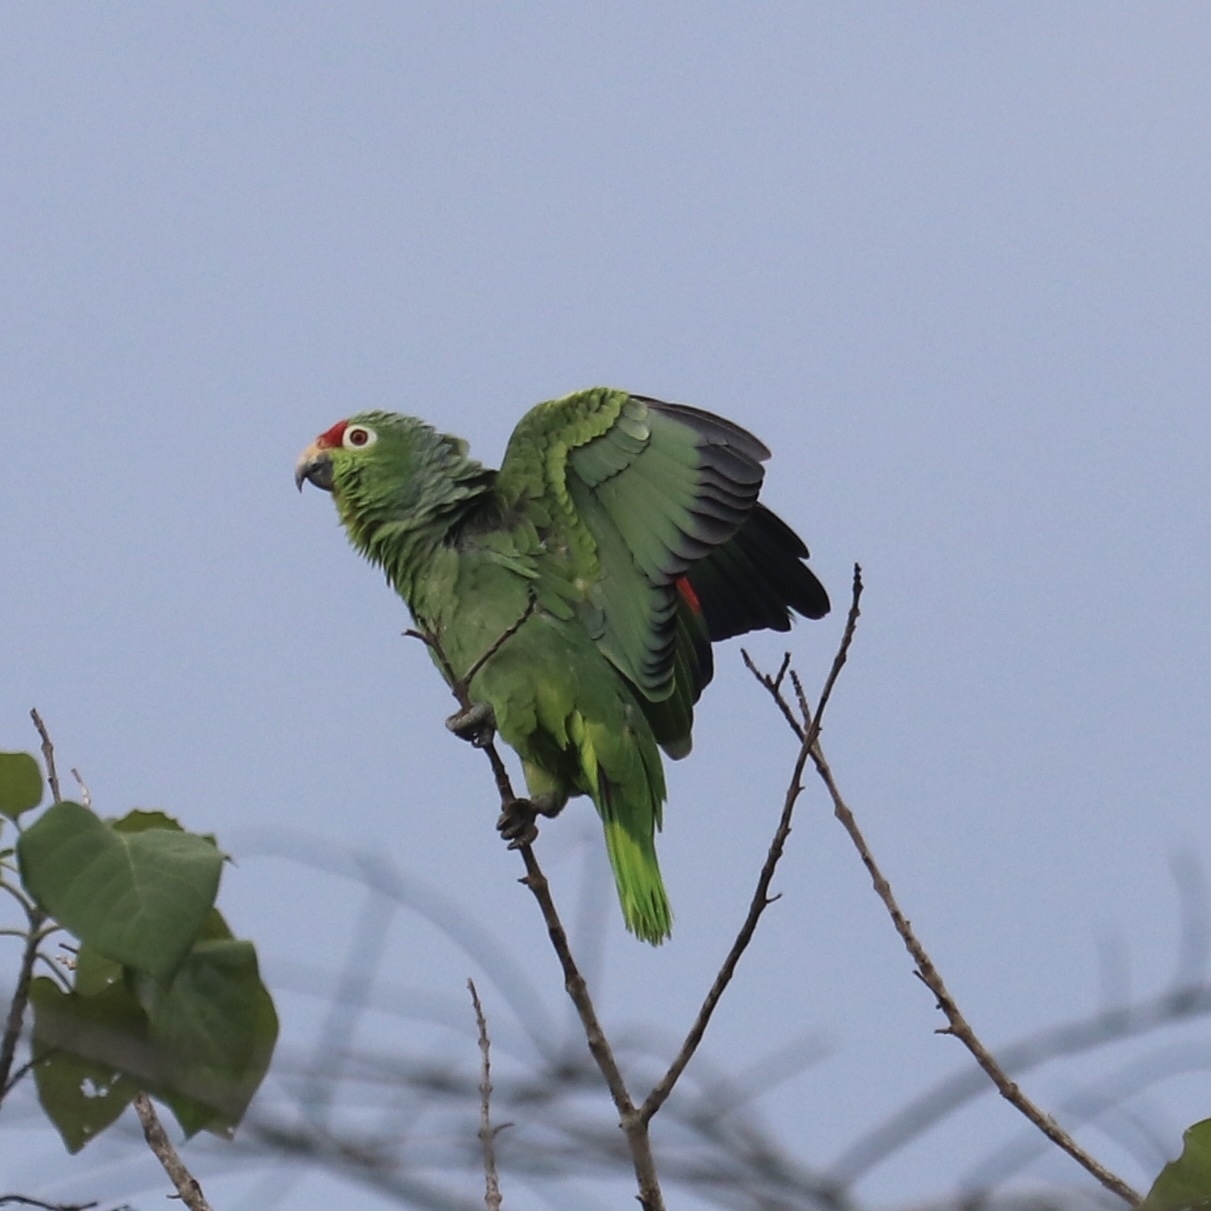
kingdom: Animalia
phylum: Chordata
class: Aves
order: Psittaciformes
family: Psittacidae
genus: Amazona
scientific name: Amazona autumnalis
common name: Red-lored amazon
